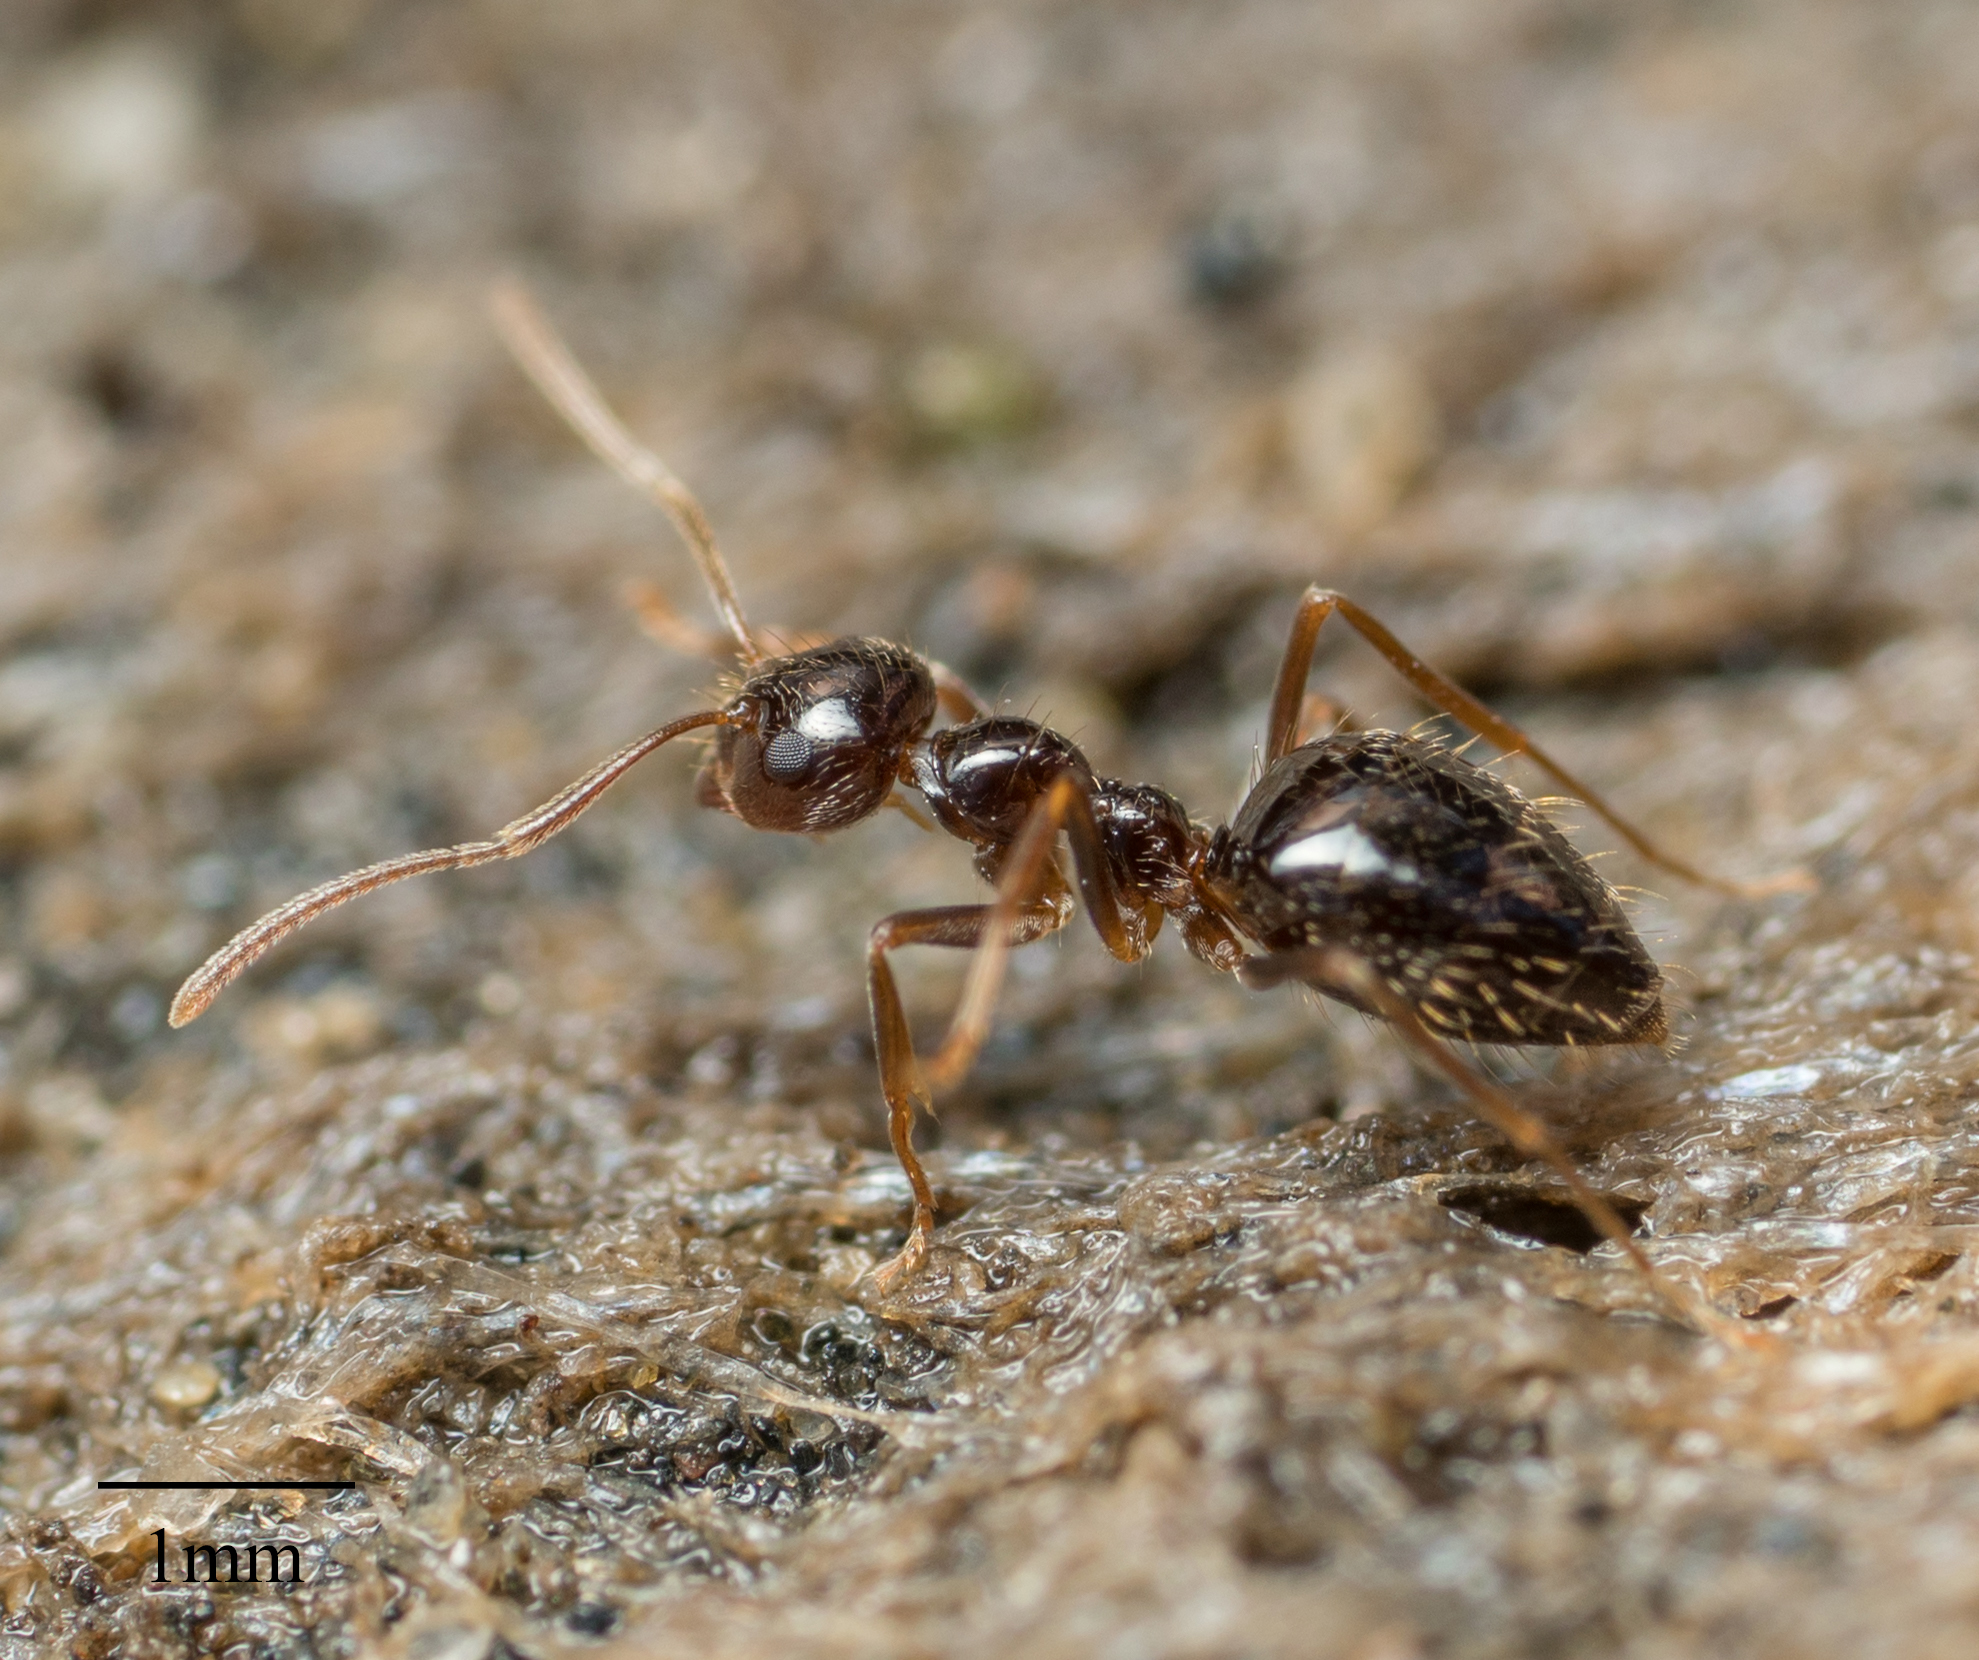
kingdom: Animalia
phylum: Arthropoda
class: Insecta
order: Hymenoptera
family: Formicidae
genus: Prenolepis
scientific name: Prenolepis imparis
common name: Small honey ant
